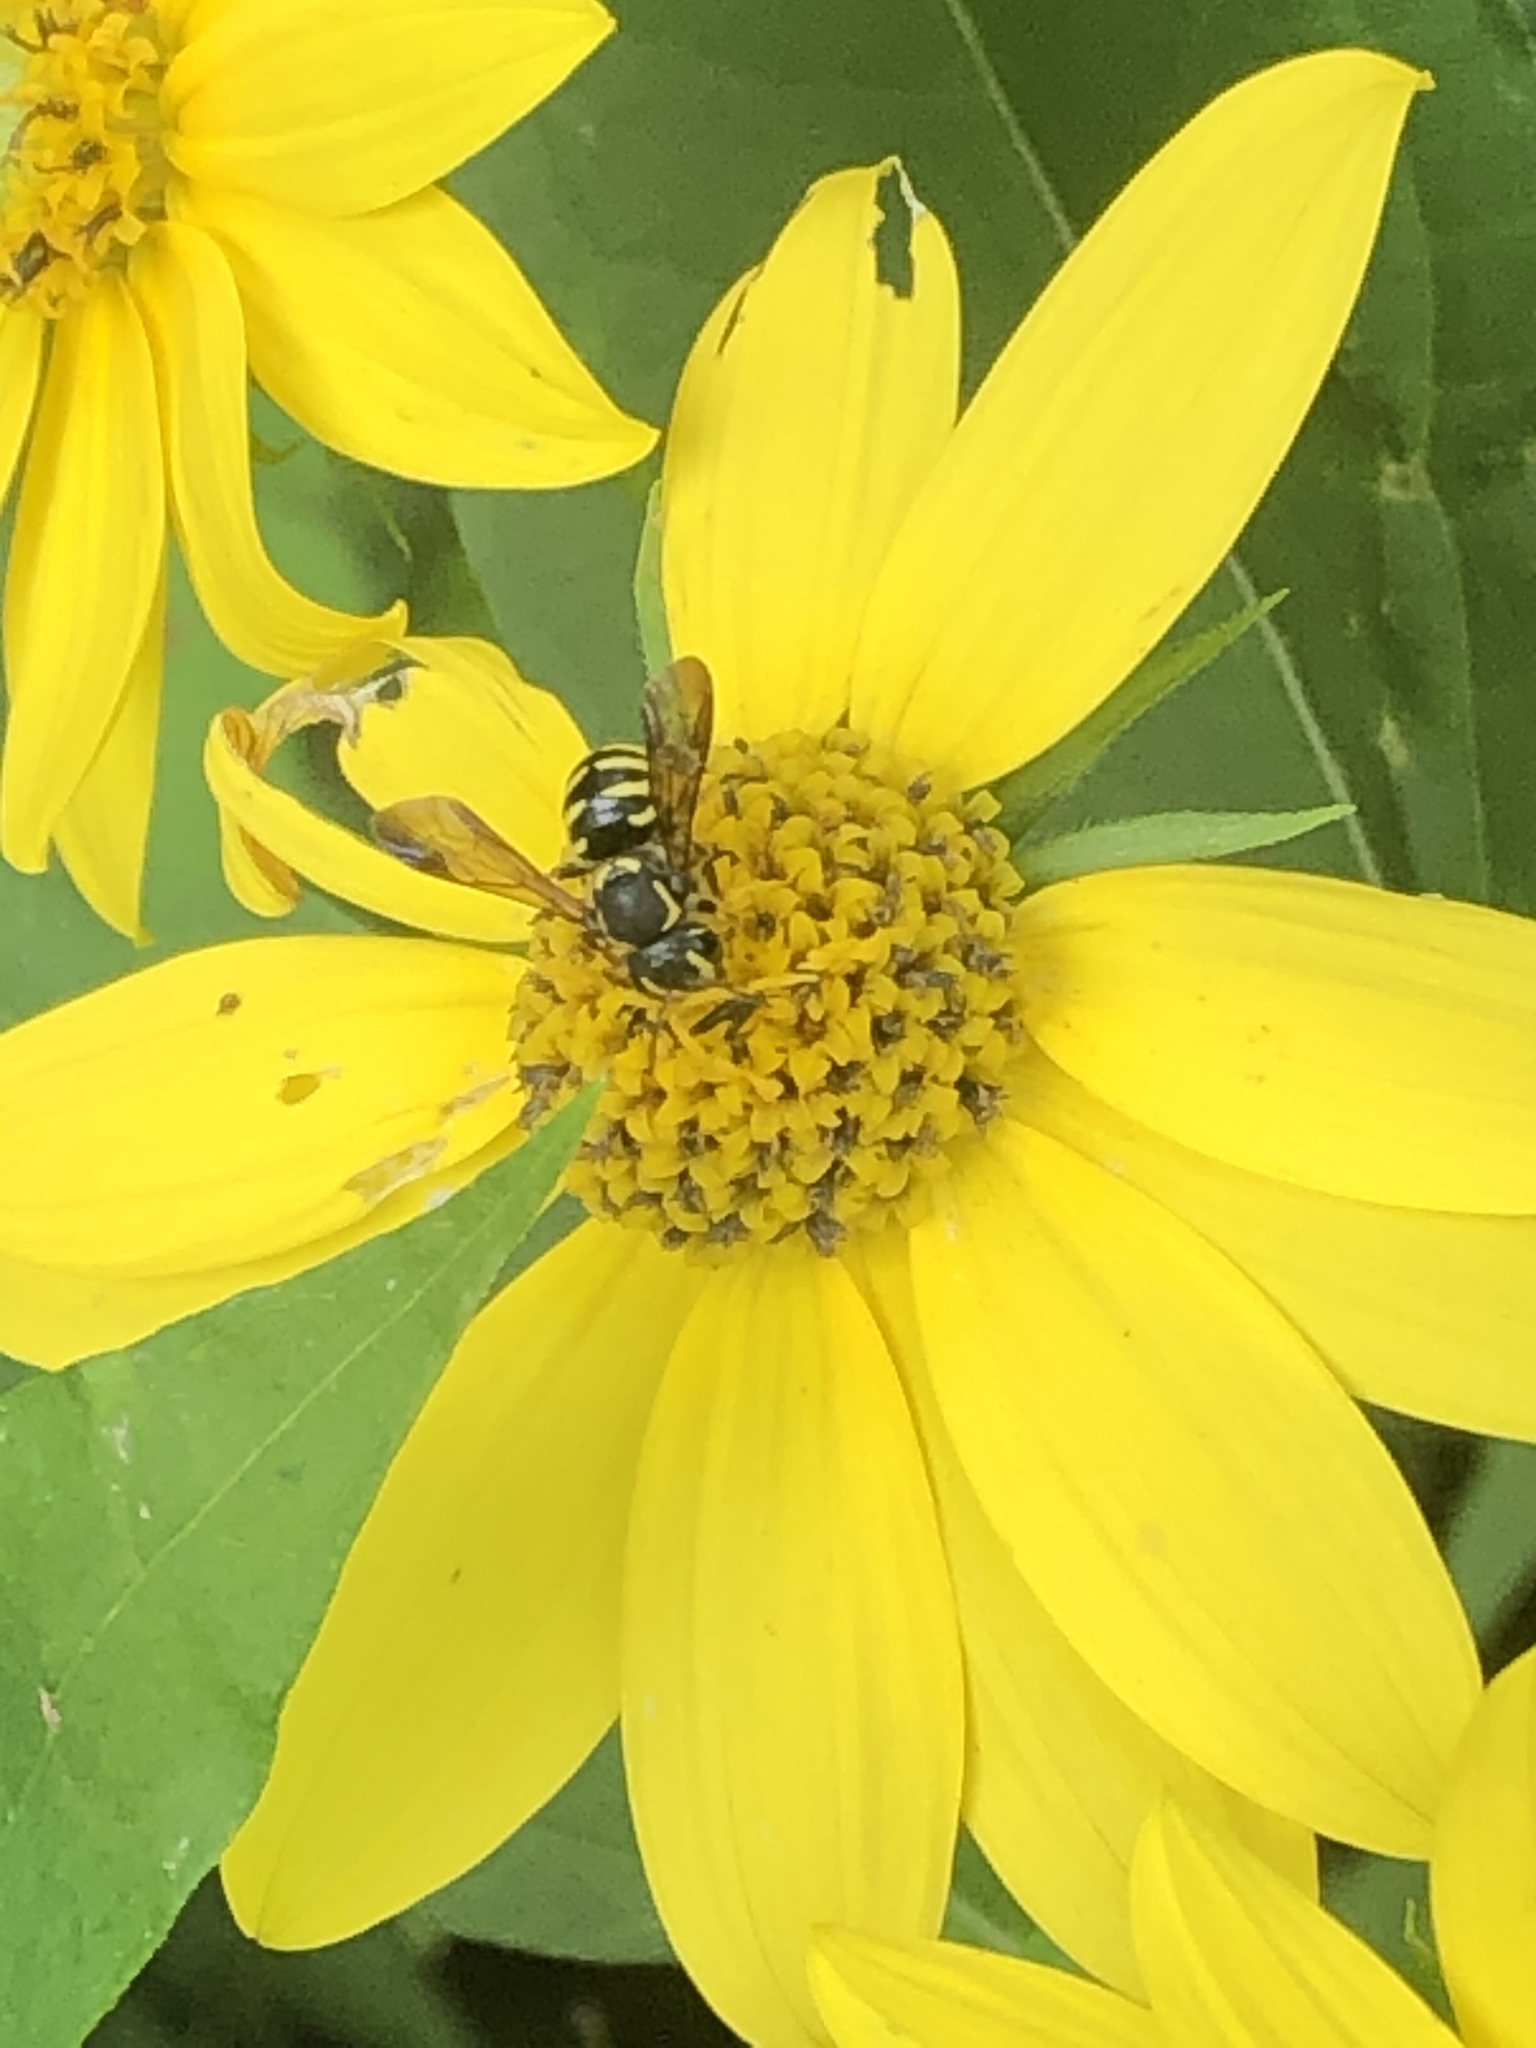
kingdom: Animalia
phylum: Arthropoda
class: Insecta
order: Hymenoptera
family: Megachilidae
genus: Paranthidium
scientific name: Paranthidium jugatorium
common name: Sunflower burrowing-resin bee
